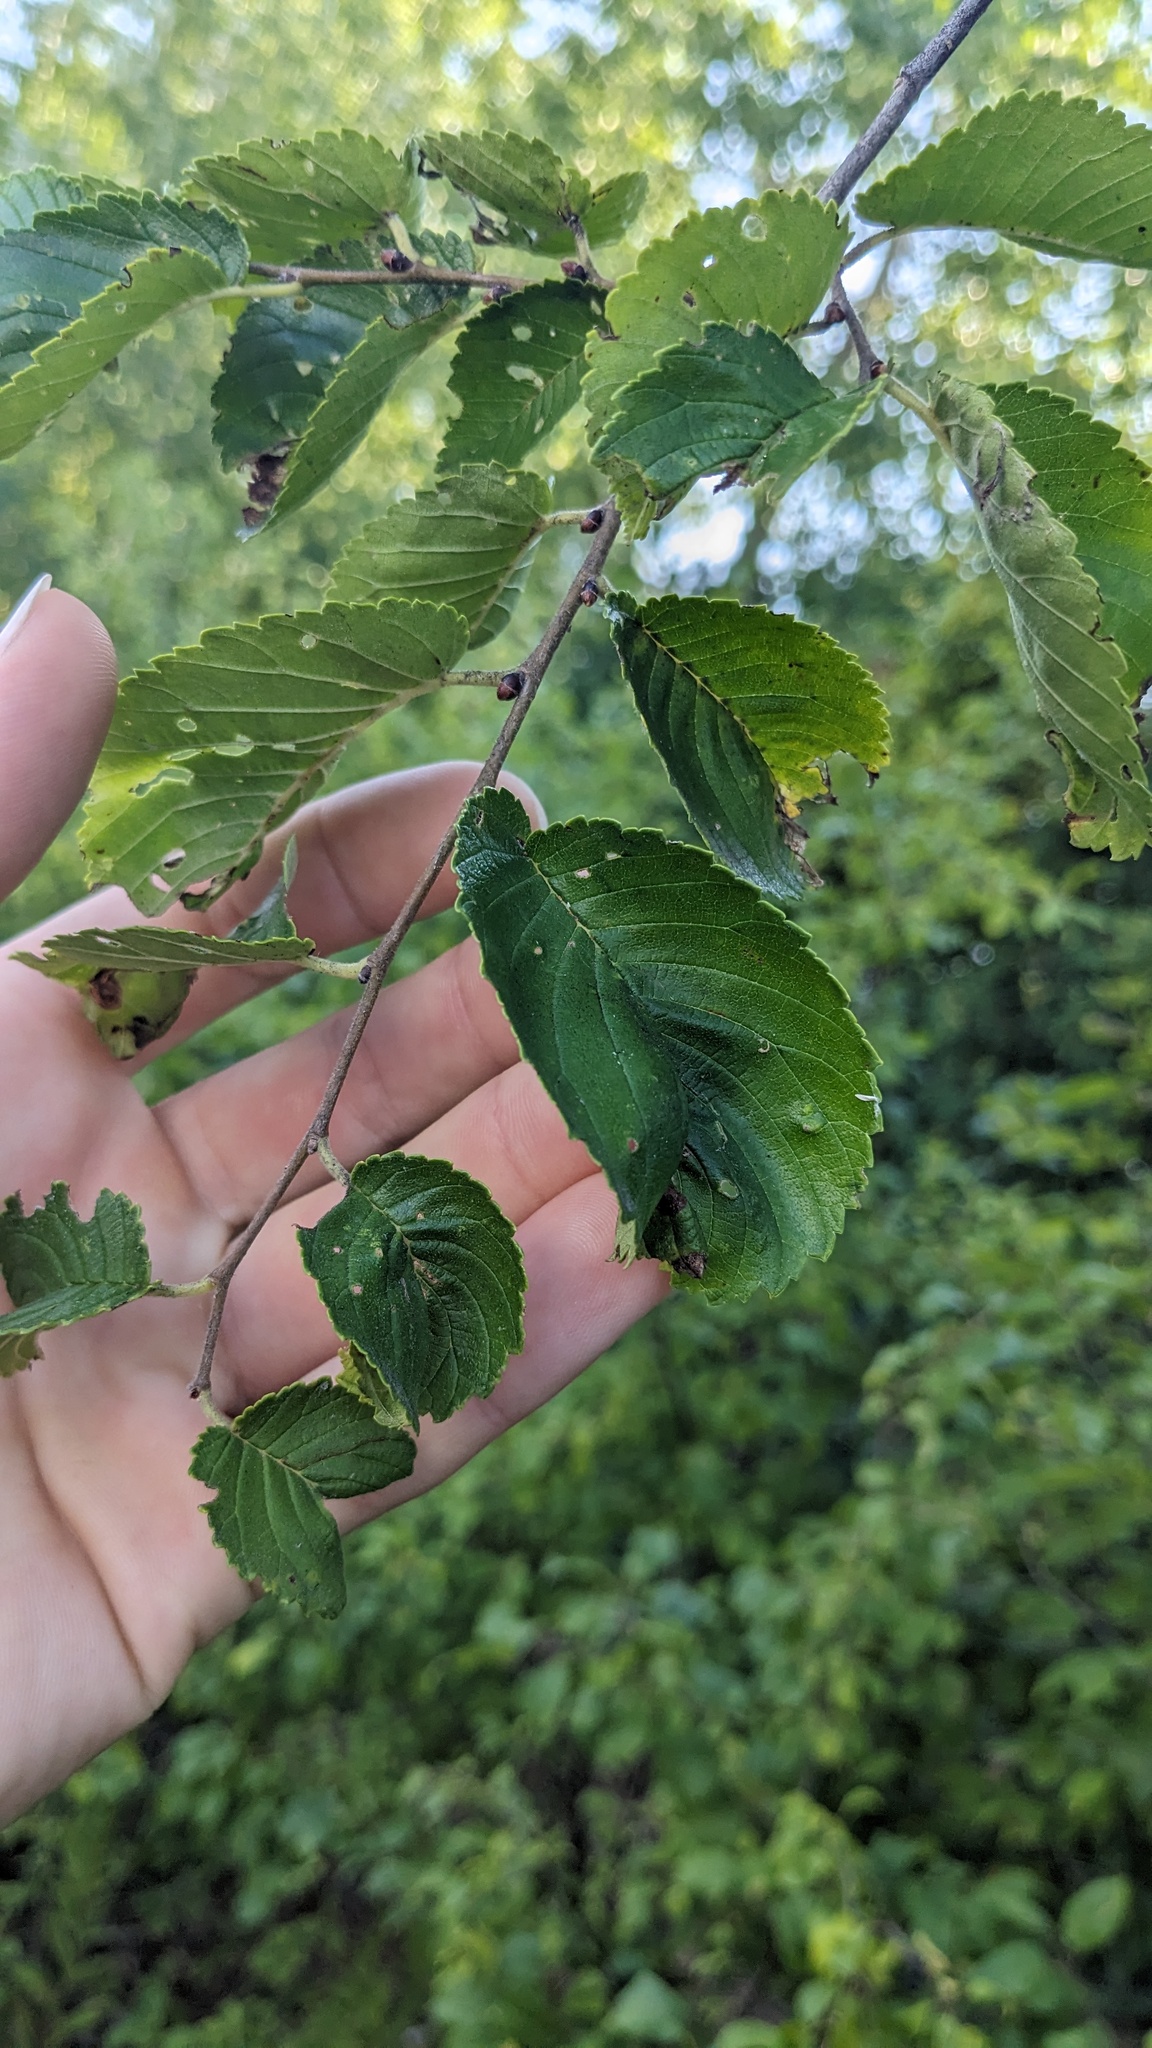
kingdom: Plantae
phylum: Tracheophyta
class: Magnoliopsida
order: Rosales
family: Ulmaceae
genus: Ulmus
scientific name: Ulmus pumila
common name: Siberian elm
